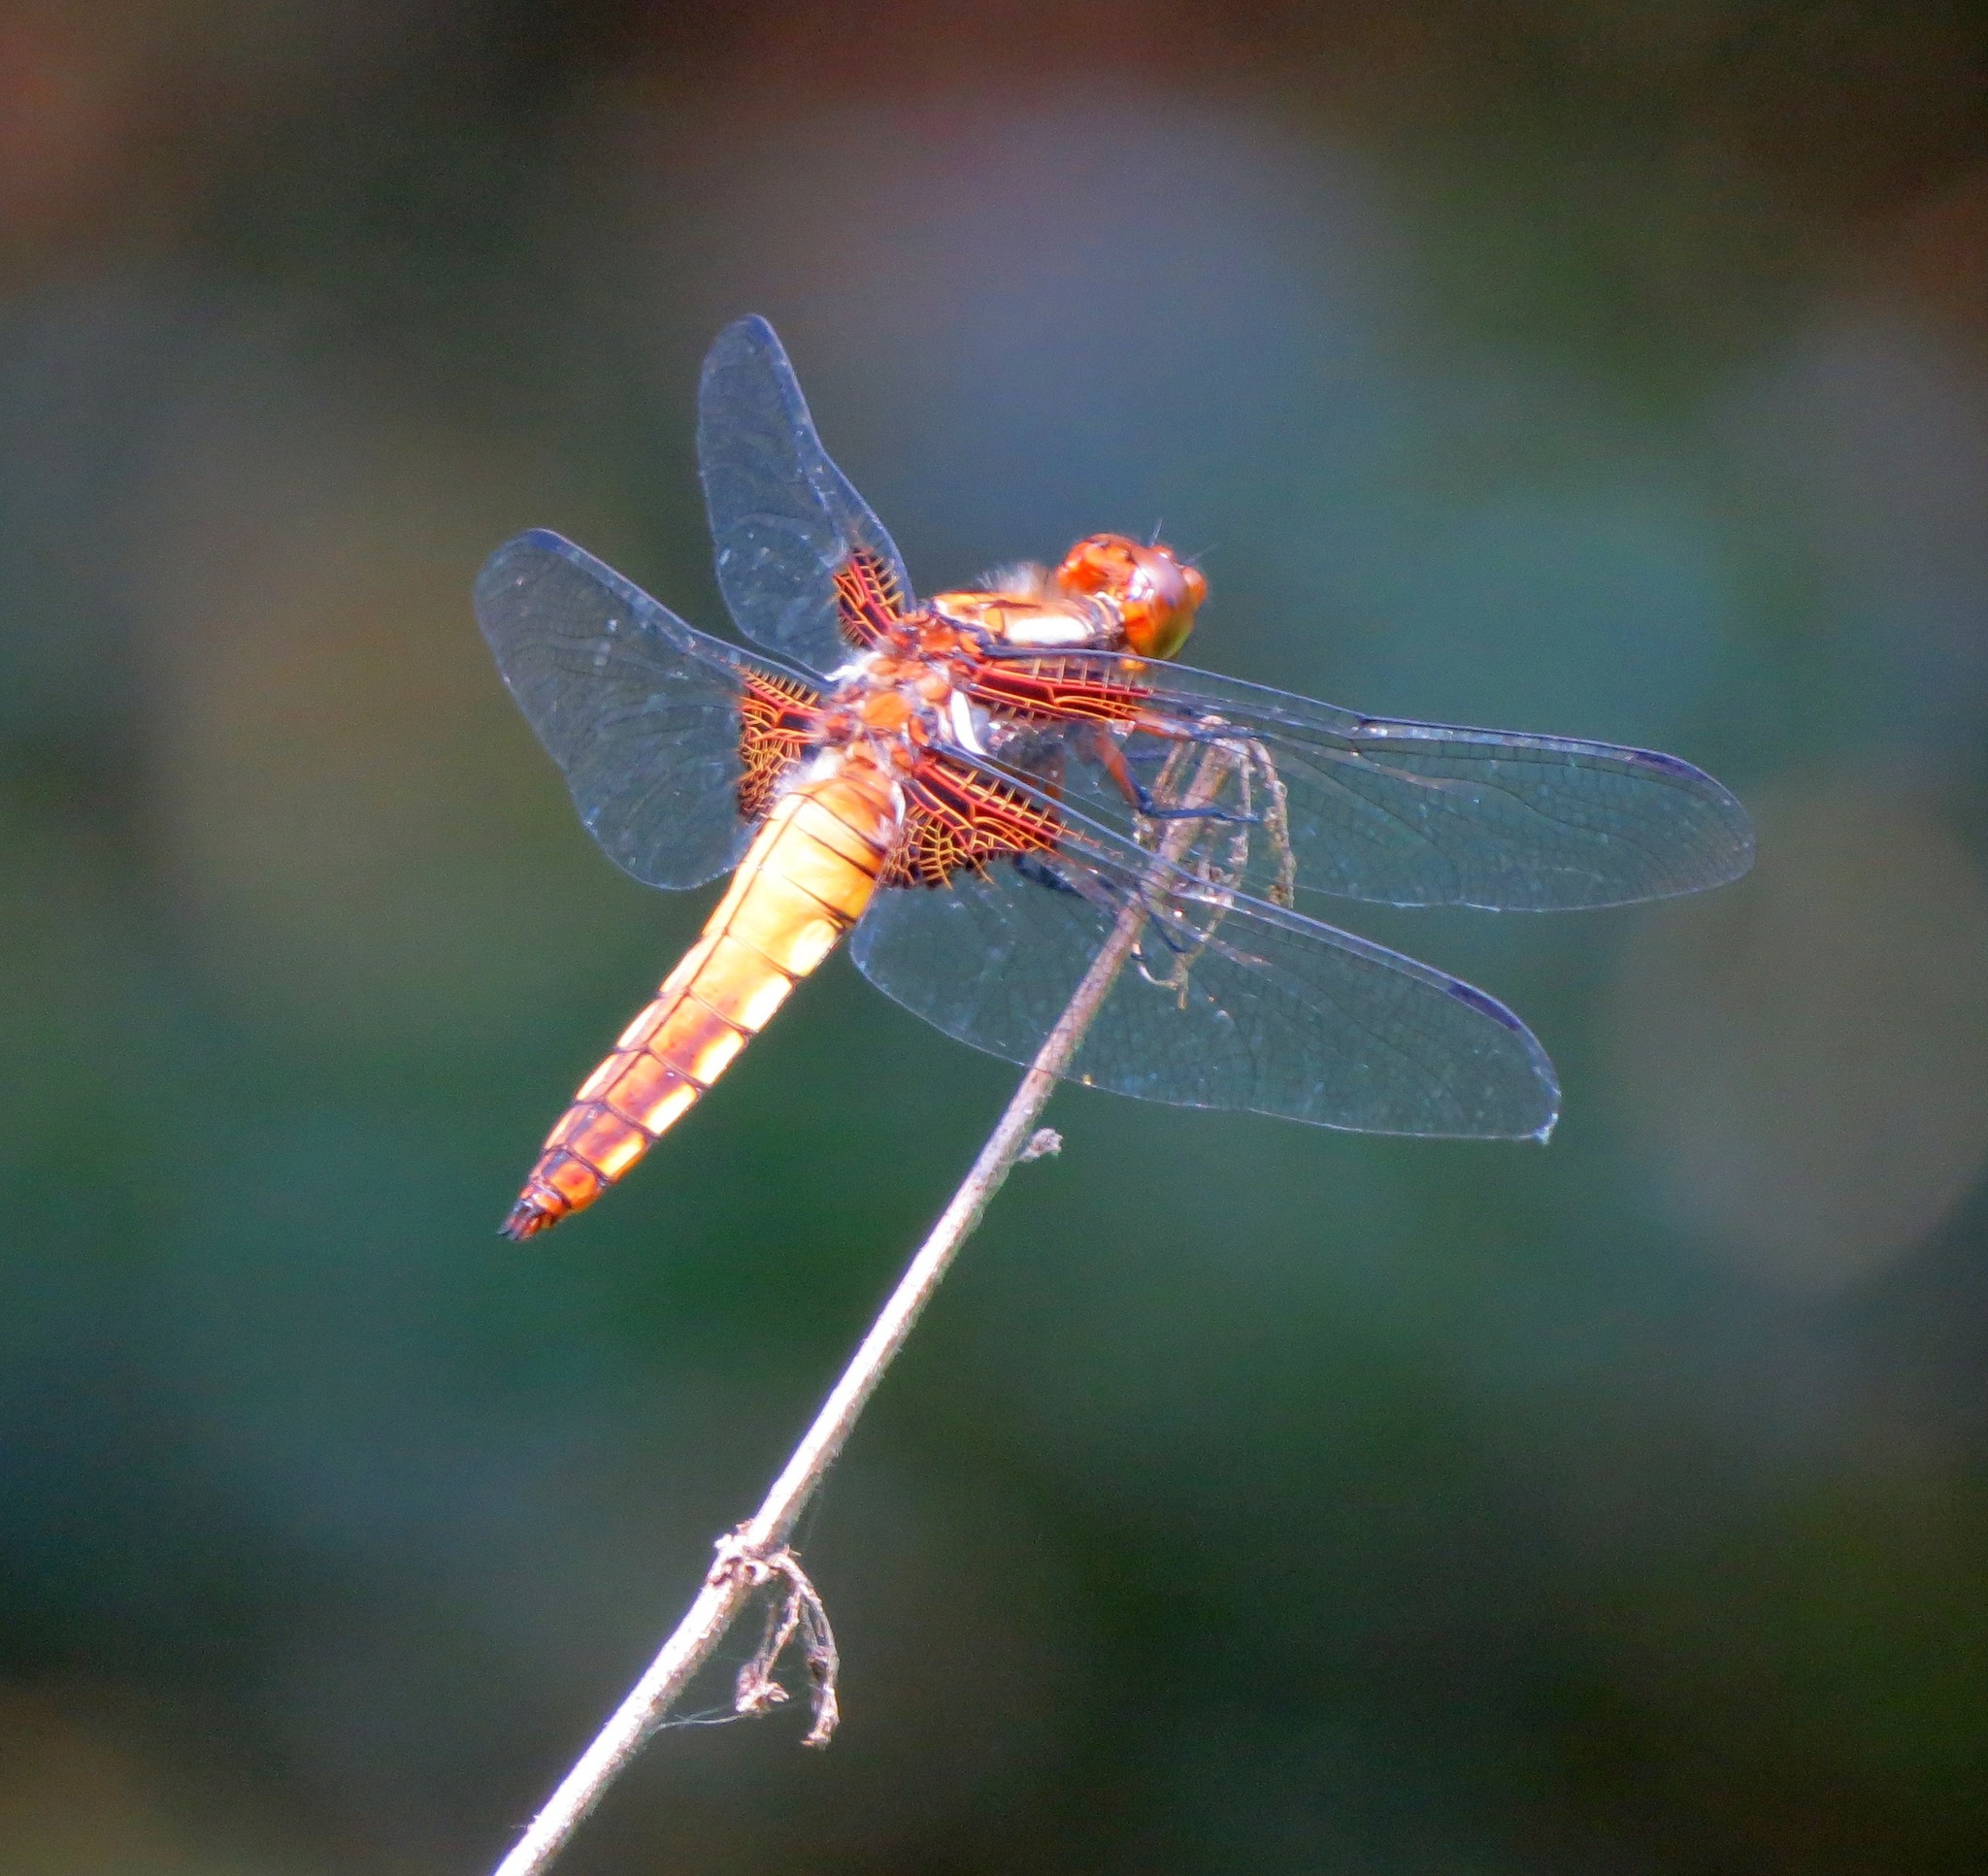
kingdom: Animalia
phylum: Arthropoda
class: Insecta
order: Odonata
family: Libellulidae
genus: Libellula
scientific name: Libellula depressa
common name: Broad-bodied chaser
